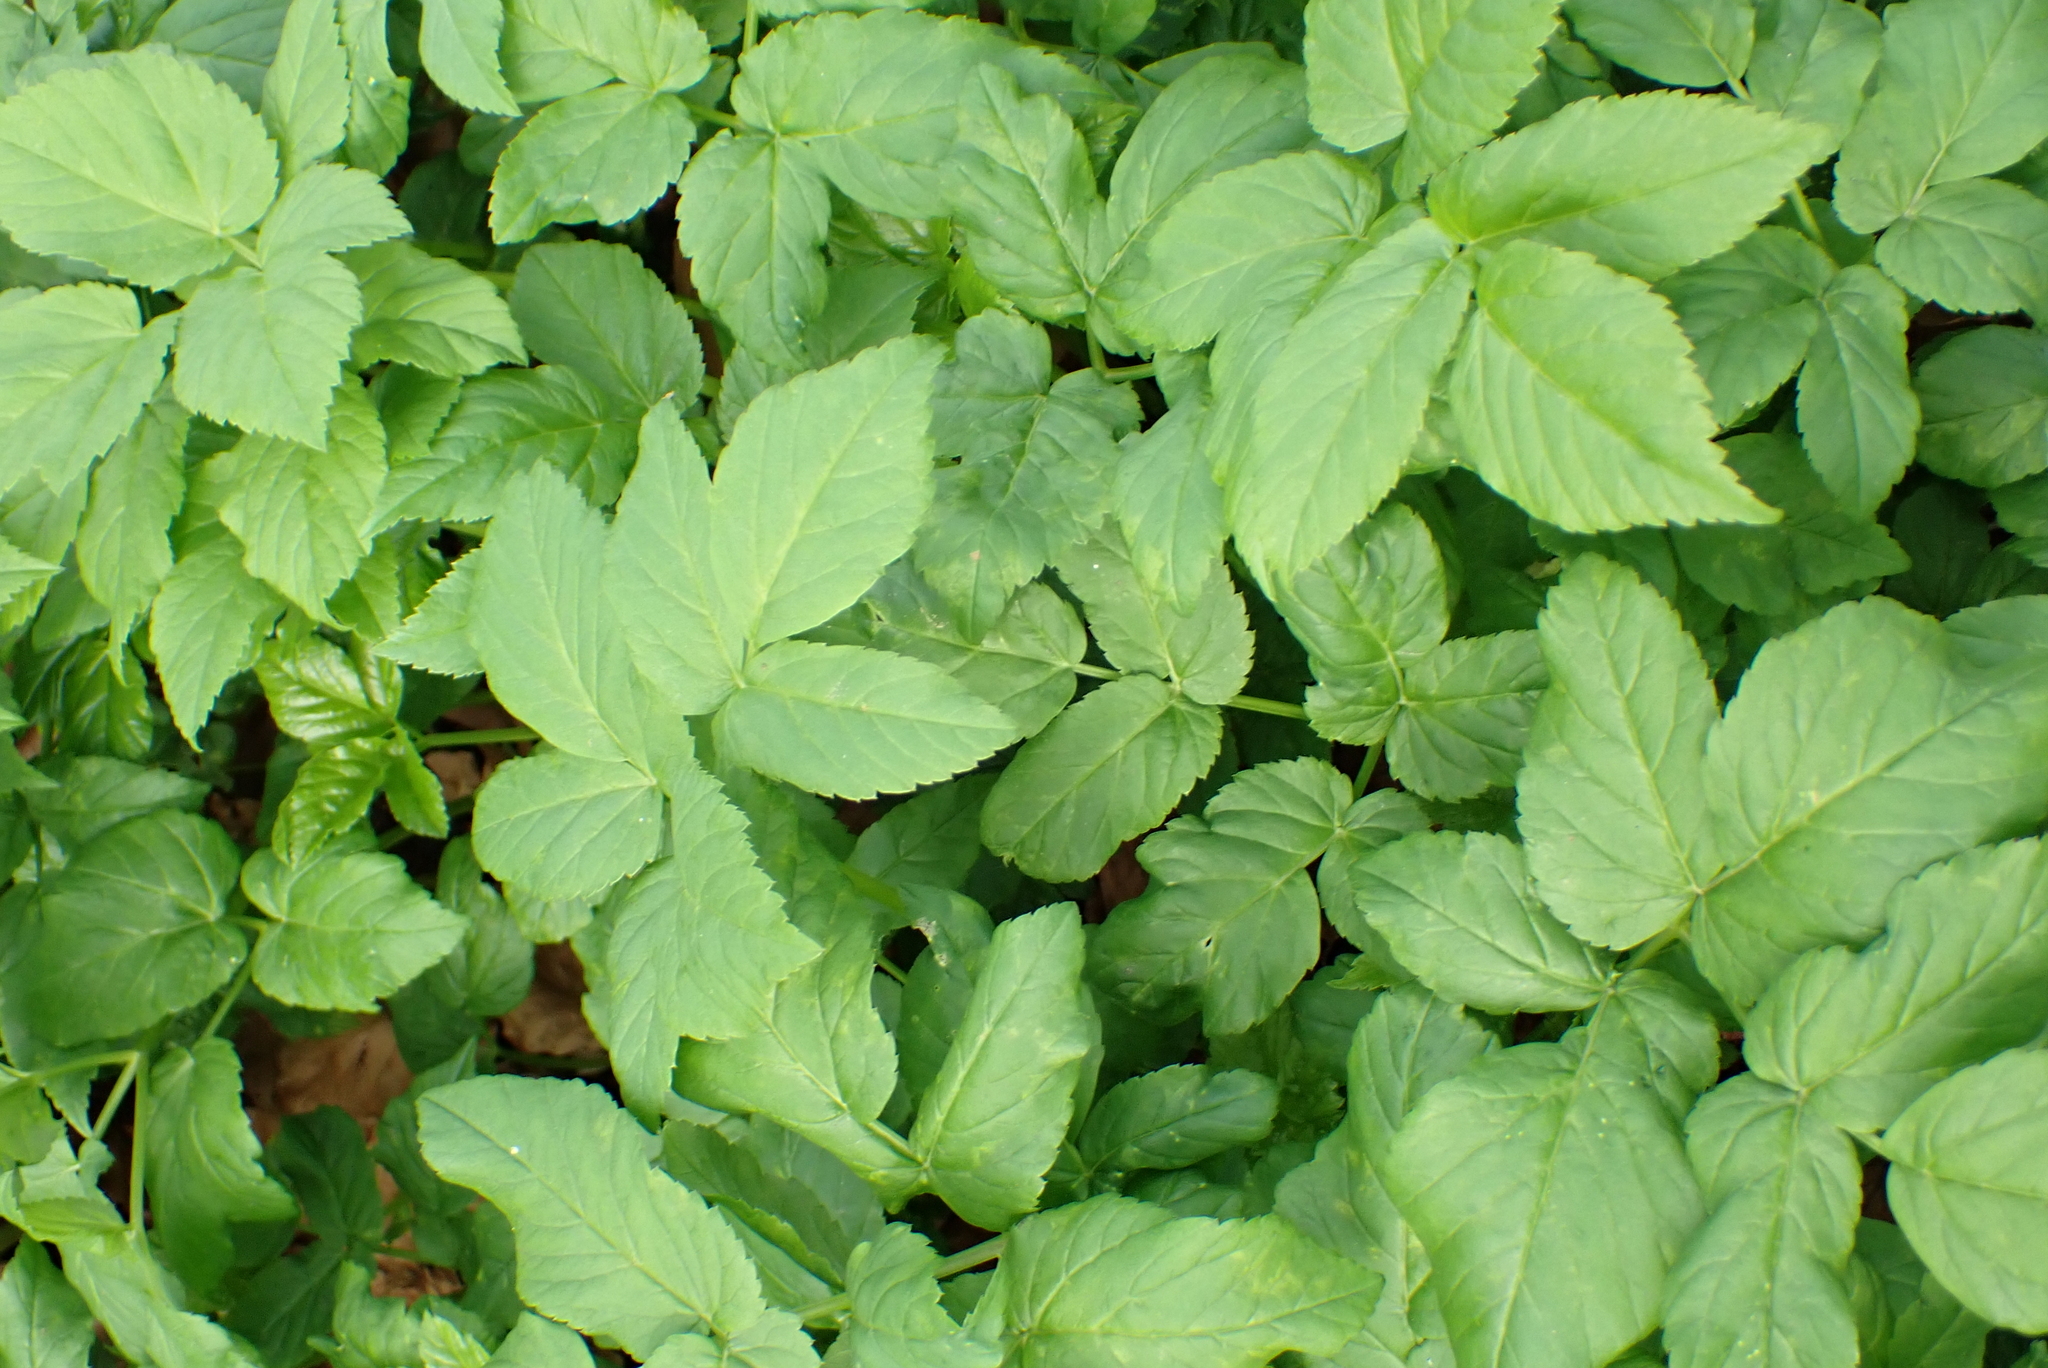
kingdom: Plantae
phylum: Tracheophyta
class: Magnoliopsida
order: Apiales
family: Apiaceae
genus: Aegopodium
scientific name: Aegopodium podagraria
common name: Ground-elder
